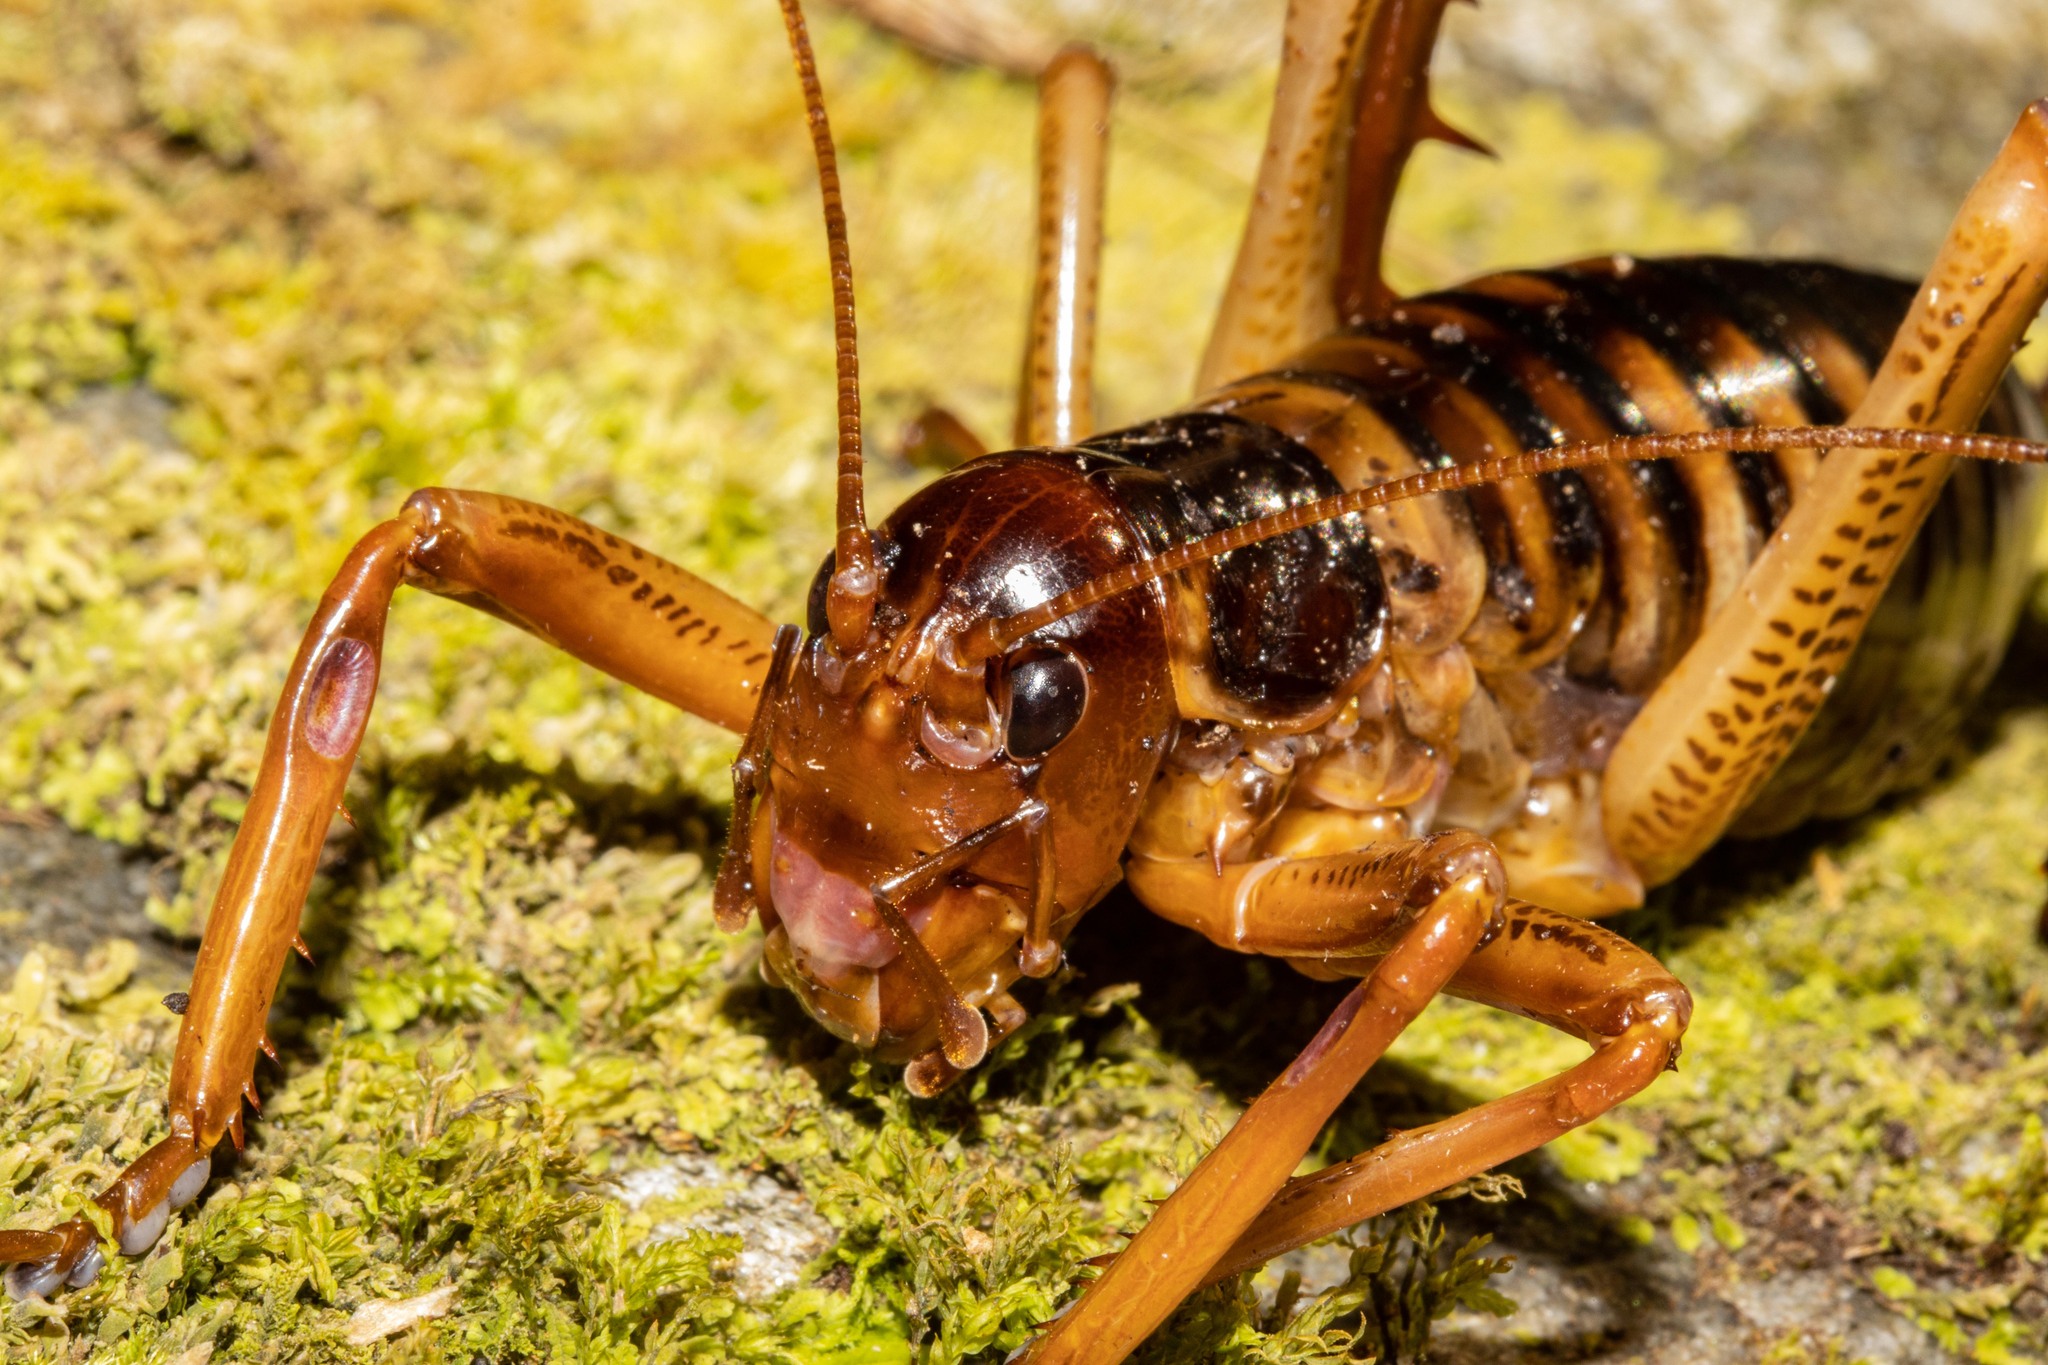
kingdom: Animalia
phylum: Arthropoda
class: Insecta
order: Orthoptera
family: Anostostomatidae
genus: Hemideina
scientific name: Hemideina crassidens
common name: Wellington tree weta
